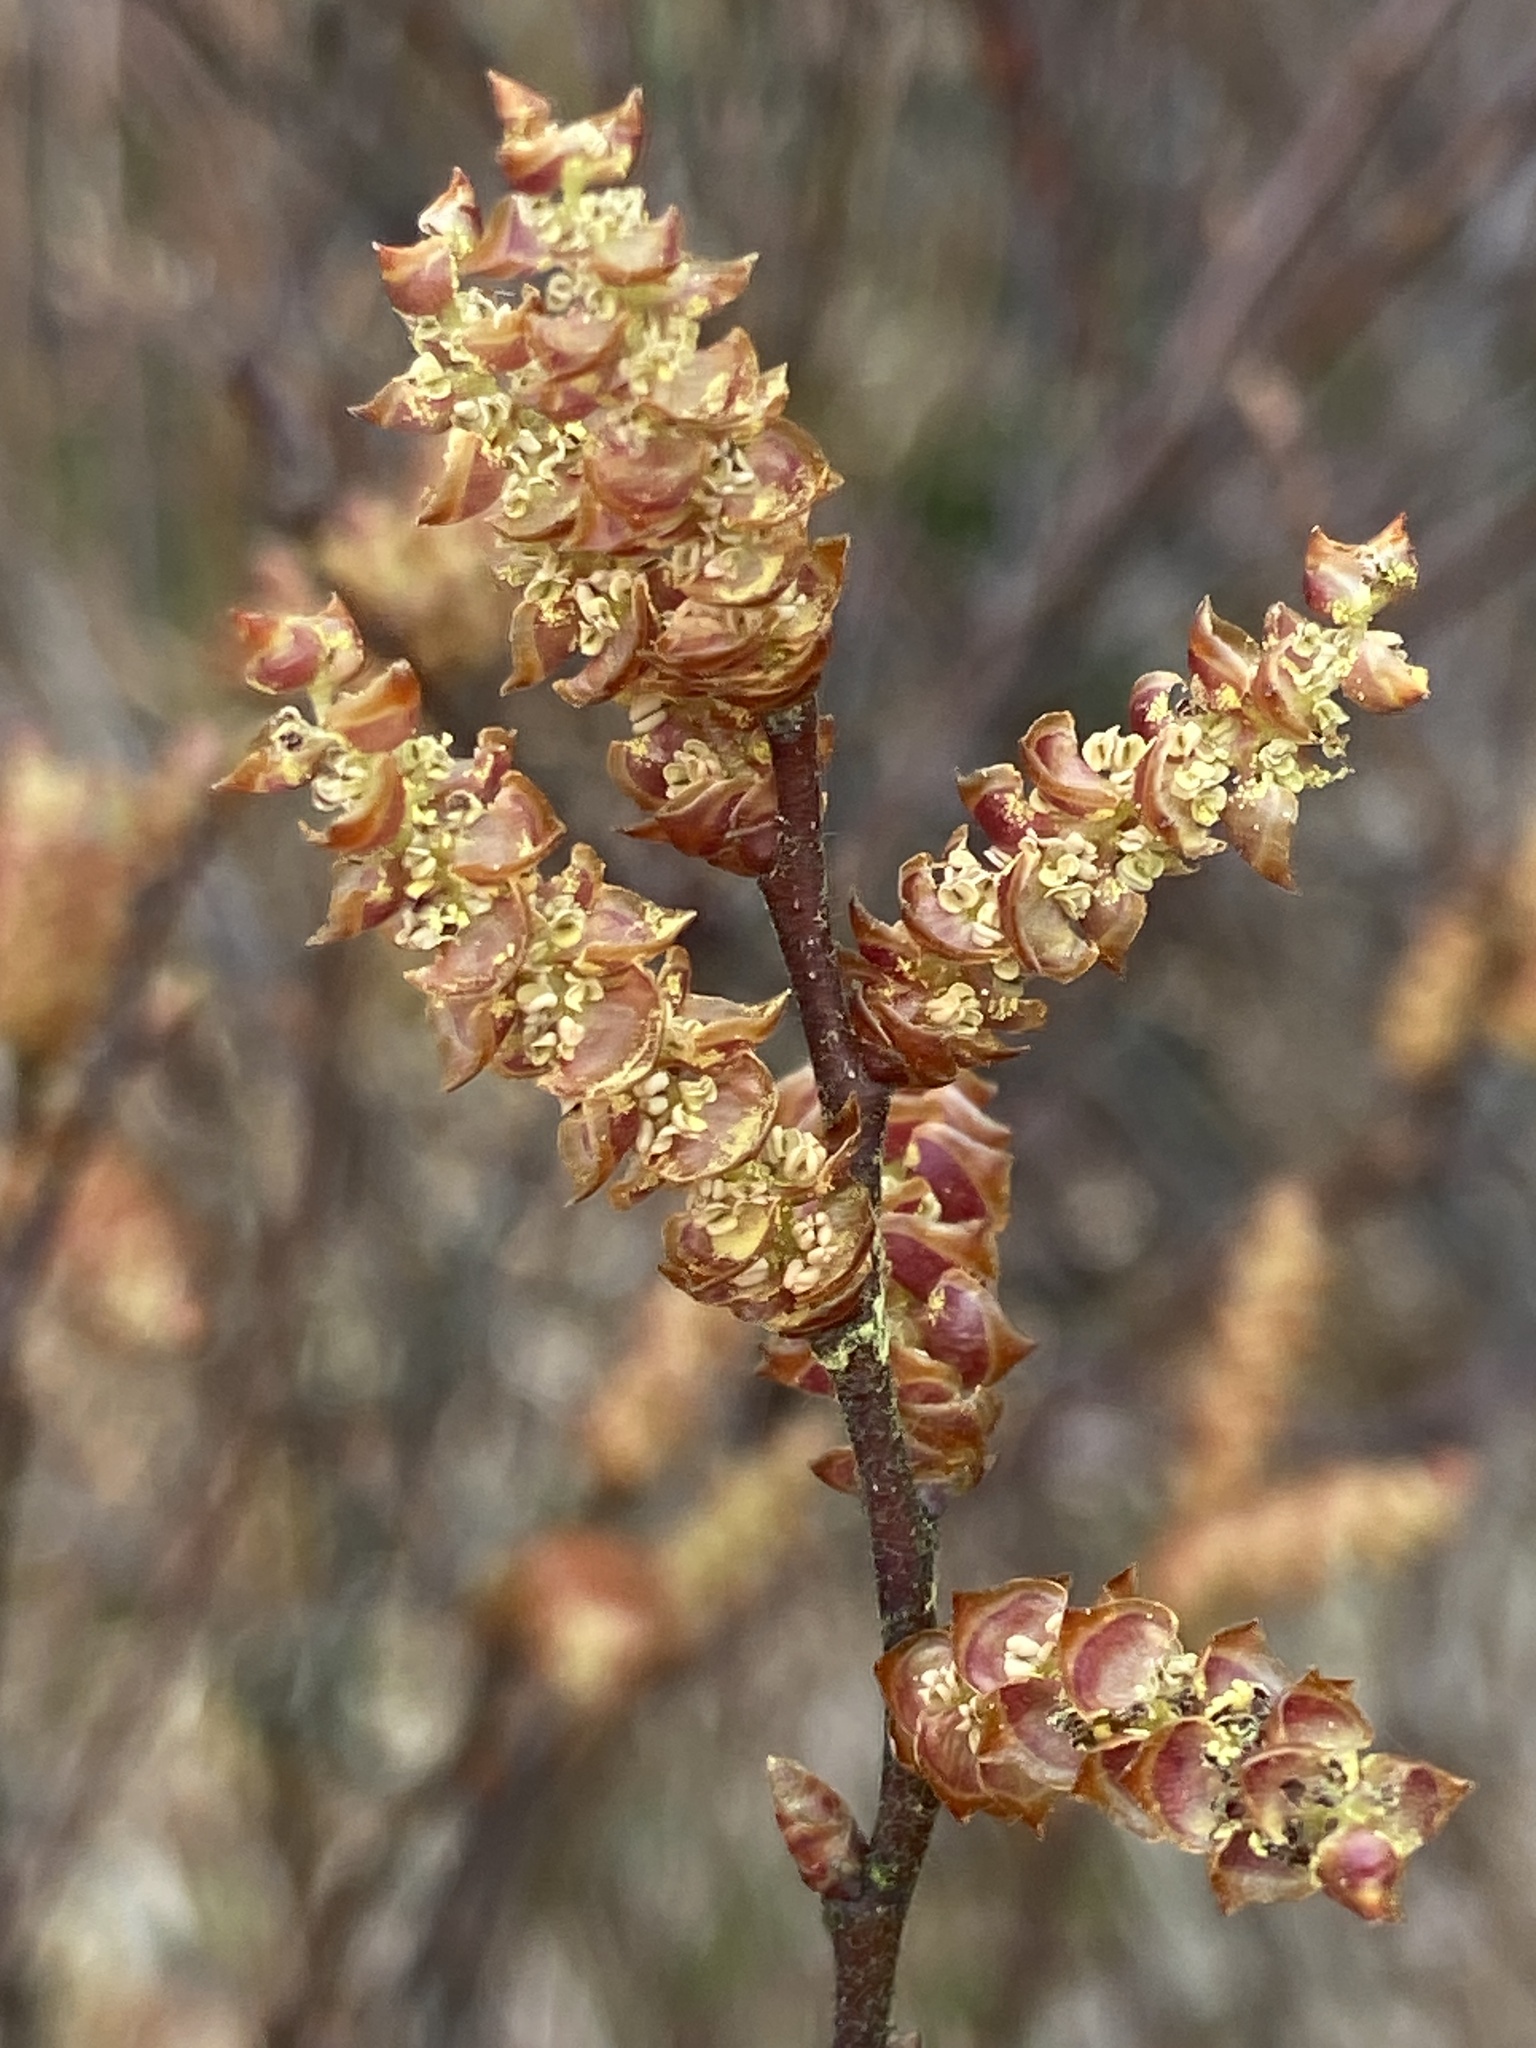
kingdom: Plantae
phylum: Tracheophyta
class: Magnoliopsida
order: Fagales
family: Myricaceae
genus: Myrica
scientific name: Myrica gale
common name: Sweet gale
